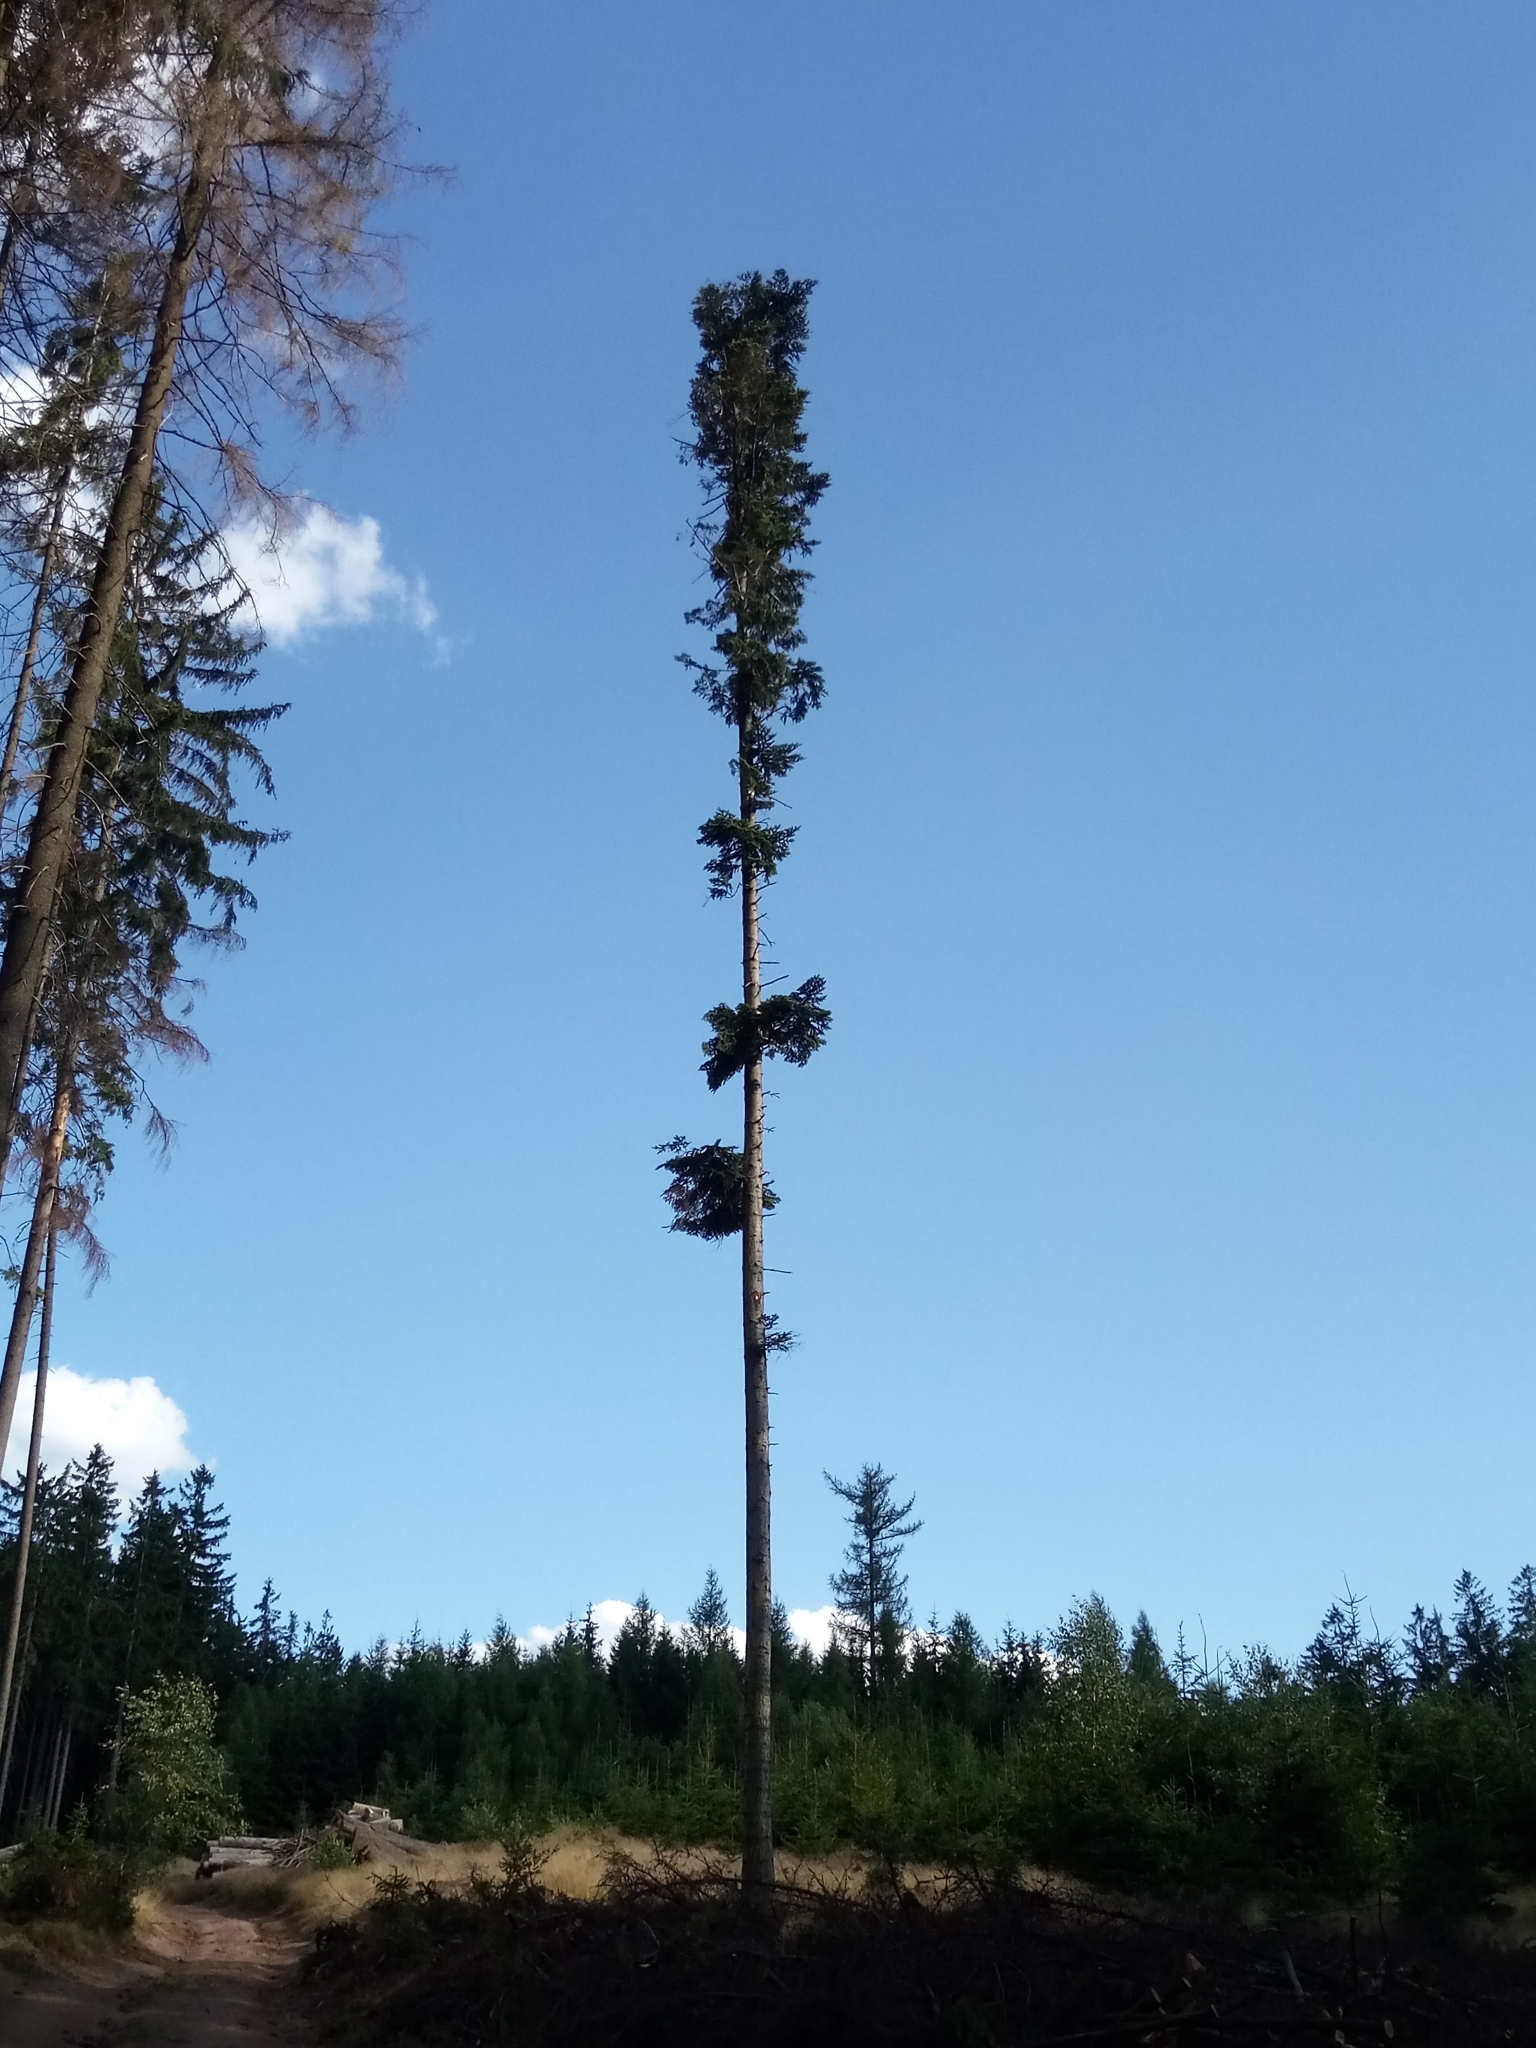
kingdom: Plantae
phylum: Tracheophyta
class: Pinopsida
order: Pinales
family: Pinaceae
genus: Abies
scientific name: Abies alba
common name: Silver fir
